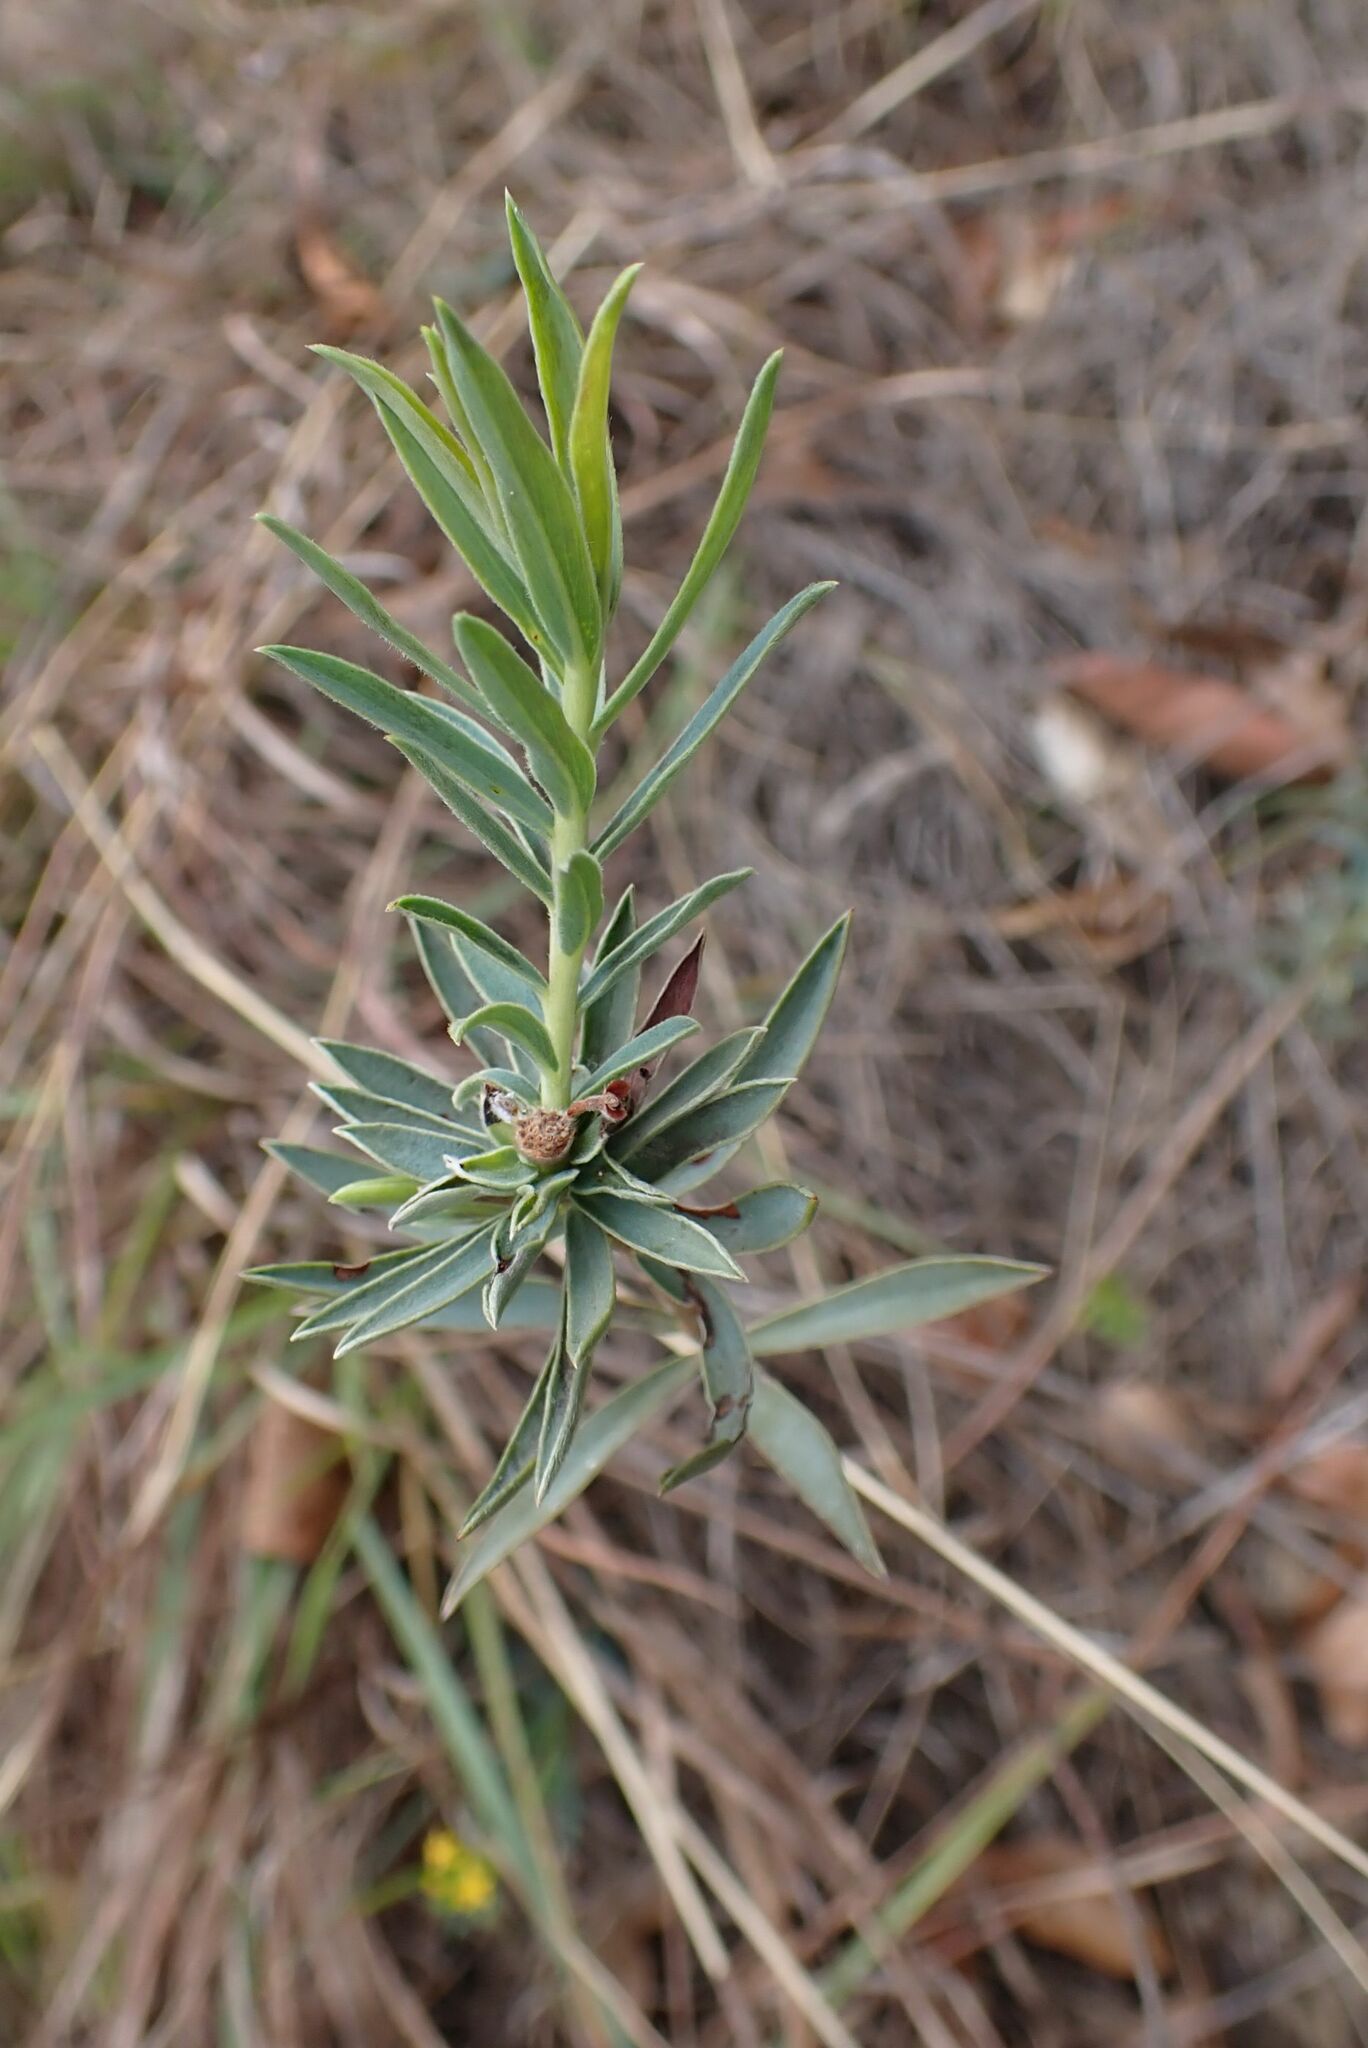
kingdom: Plantae
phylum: Tracheophyta
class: Magnoliopsida
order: Malvales
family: Thymelaeaceae
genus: Gnidia
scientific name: Gnidia capitata
